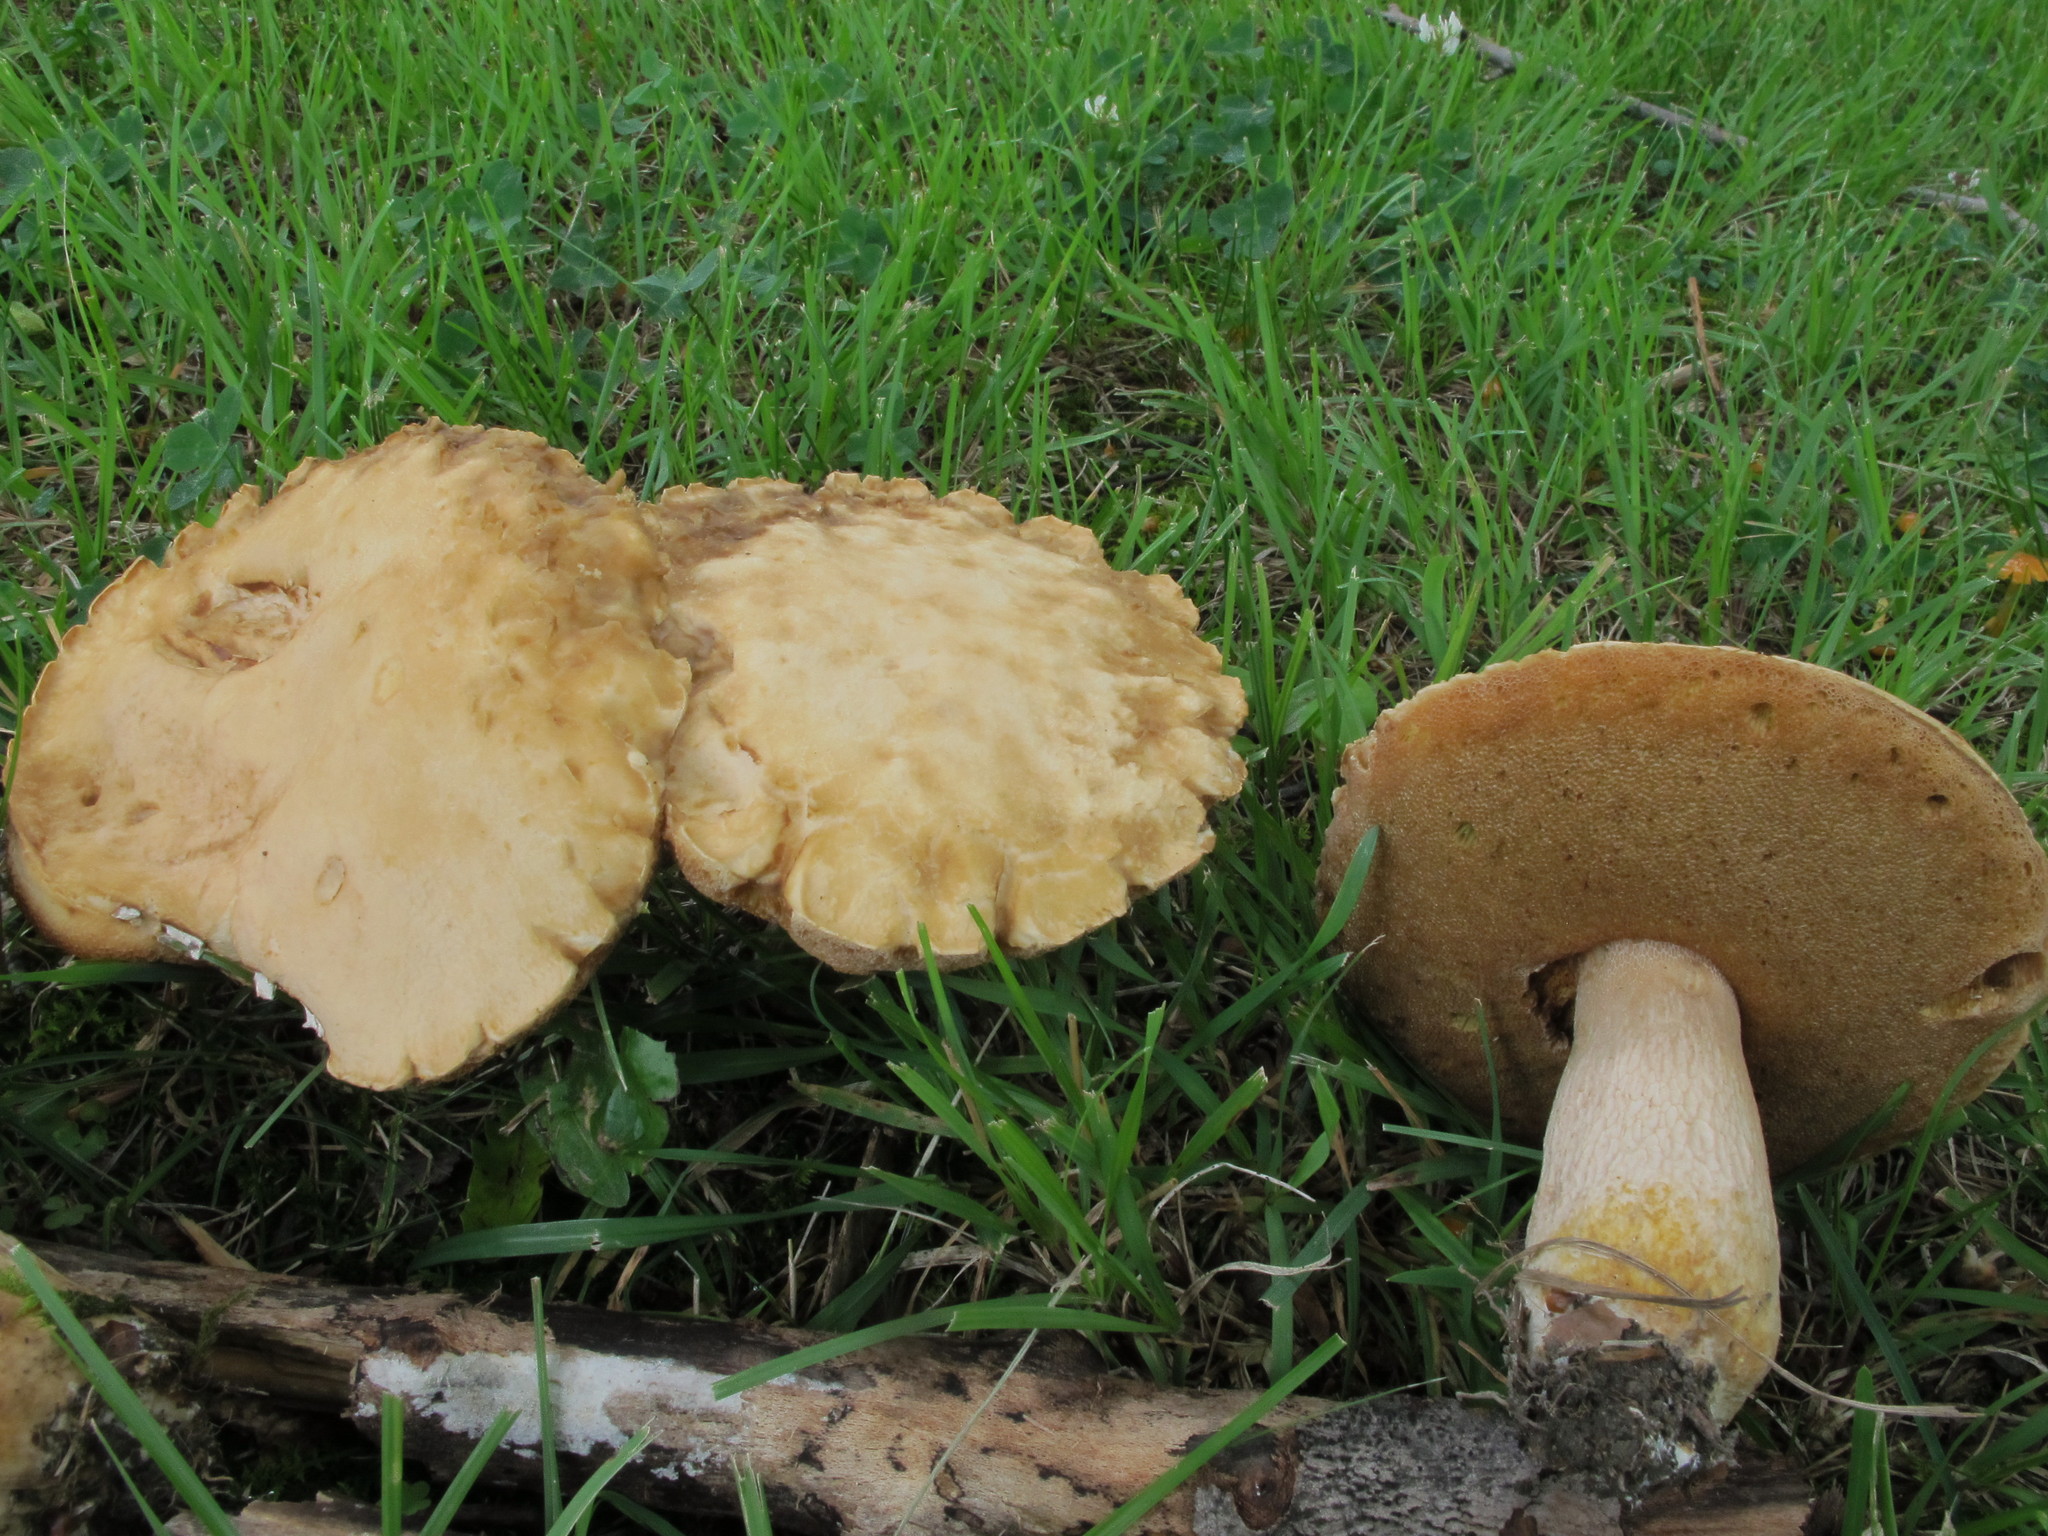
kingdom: Fungi
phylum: Basidiomycota
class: Agaricomycetes
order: Boletales
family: Boletaceae
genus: Xanthoconium
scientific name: Xanthoconium separans
